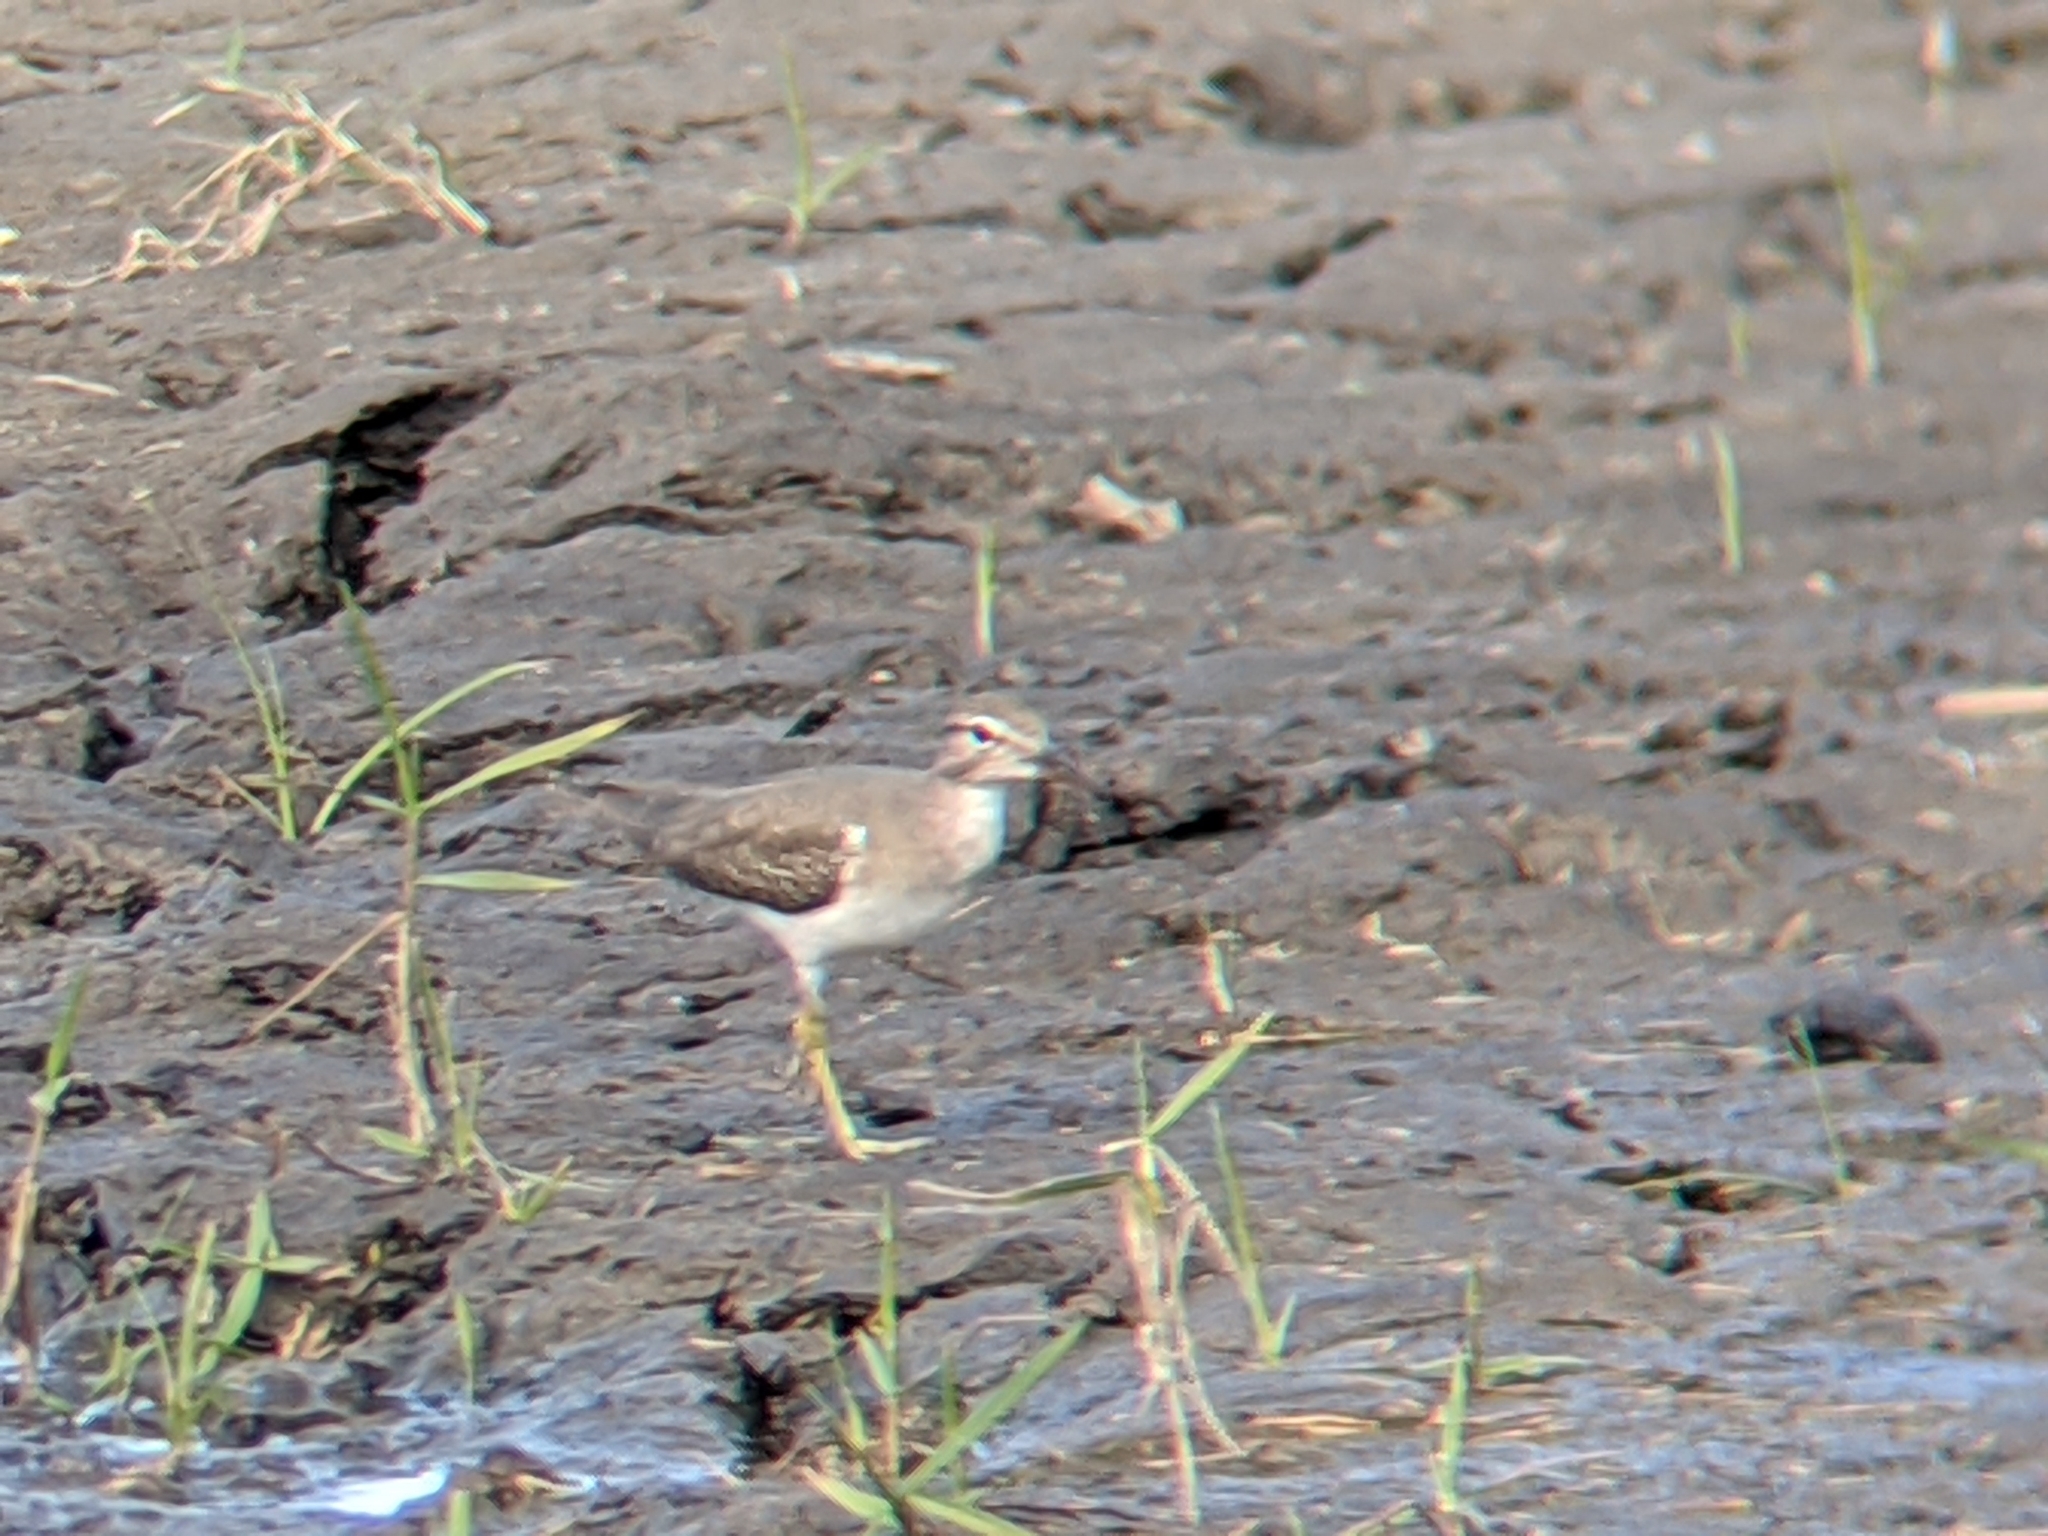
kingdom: Animalia
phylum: Chordata
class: Aves
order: Charadriiformes
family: Scolopacidae
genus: Actitis
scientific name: Actitis macularius
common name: Spotted sandpiper
